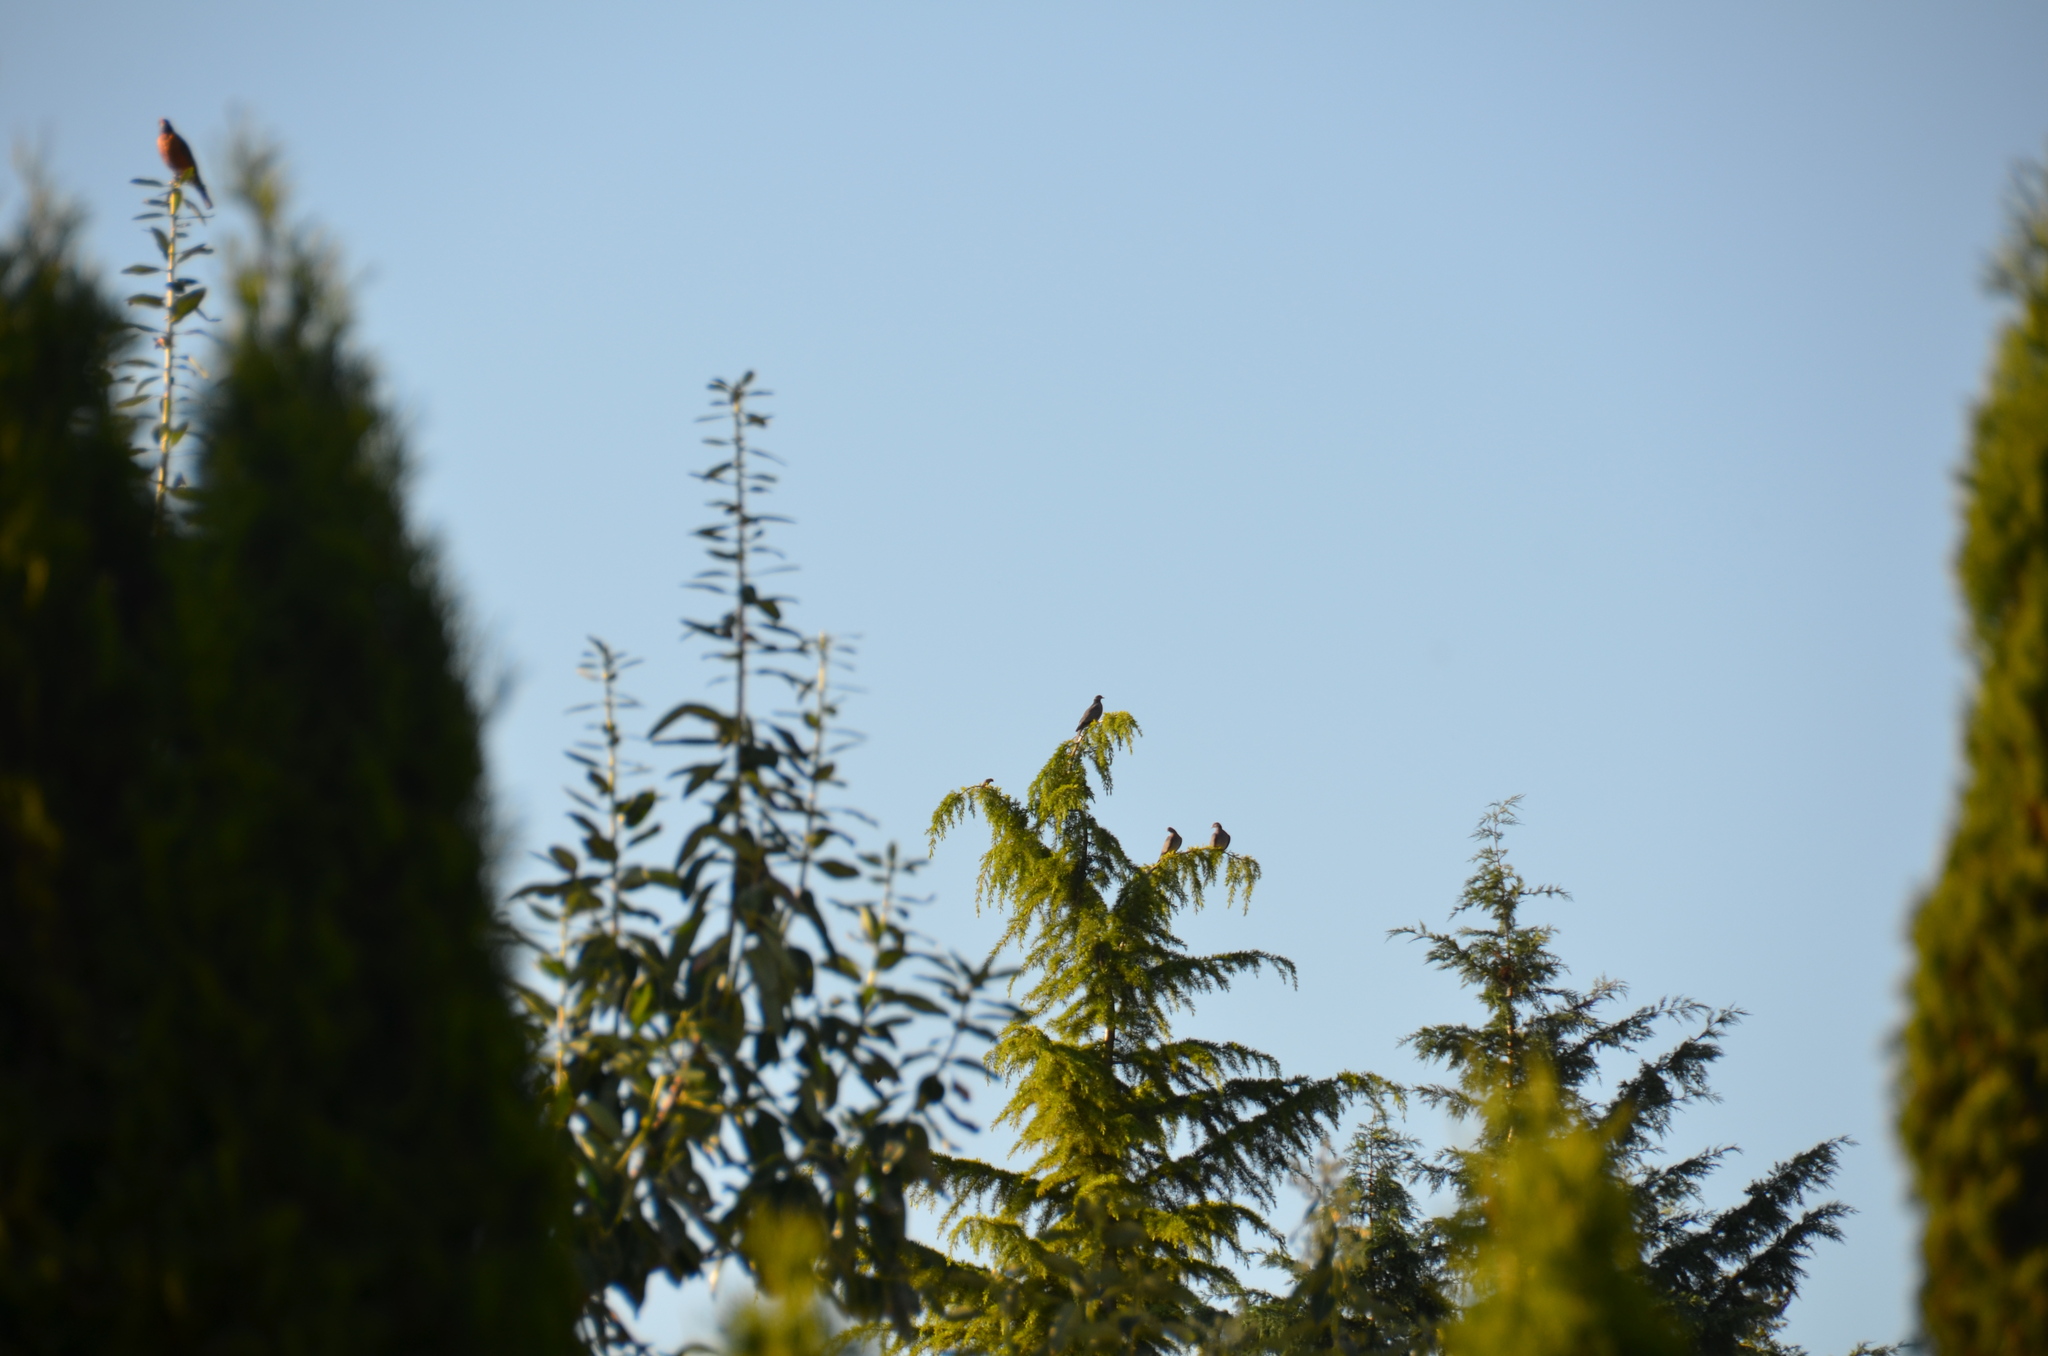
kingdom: Animalia
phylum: Chordata
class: Aves
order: Columbiformes
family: Columbidae
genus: Patagioenas
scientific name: Patagioenas fasciata
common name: Band-tailed pigeon
